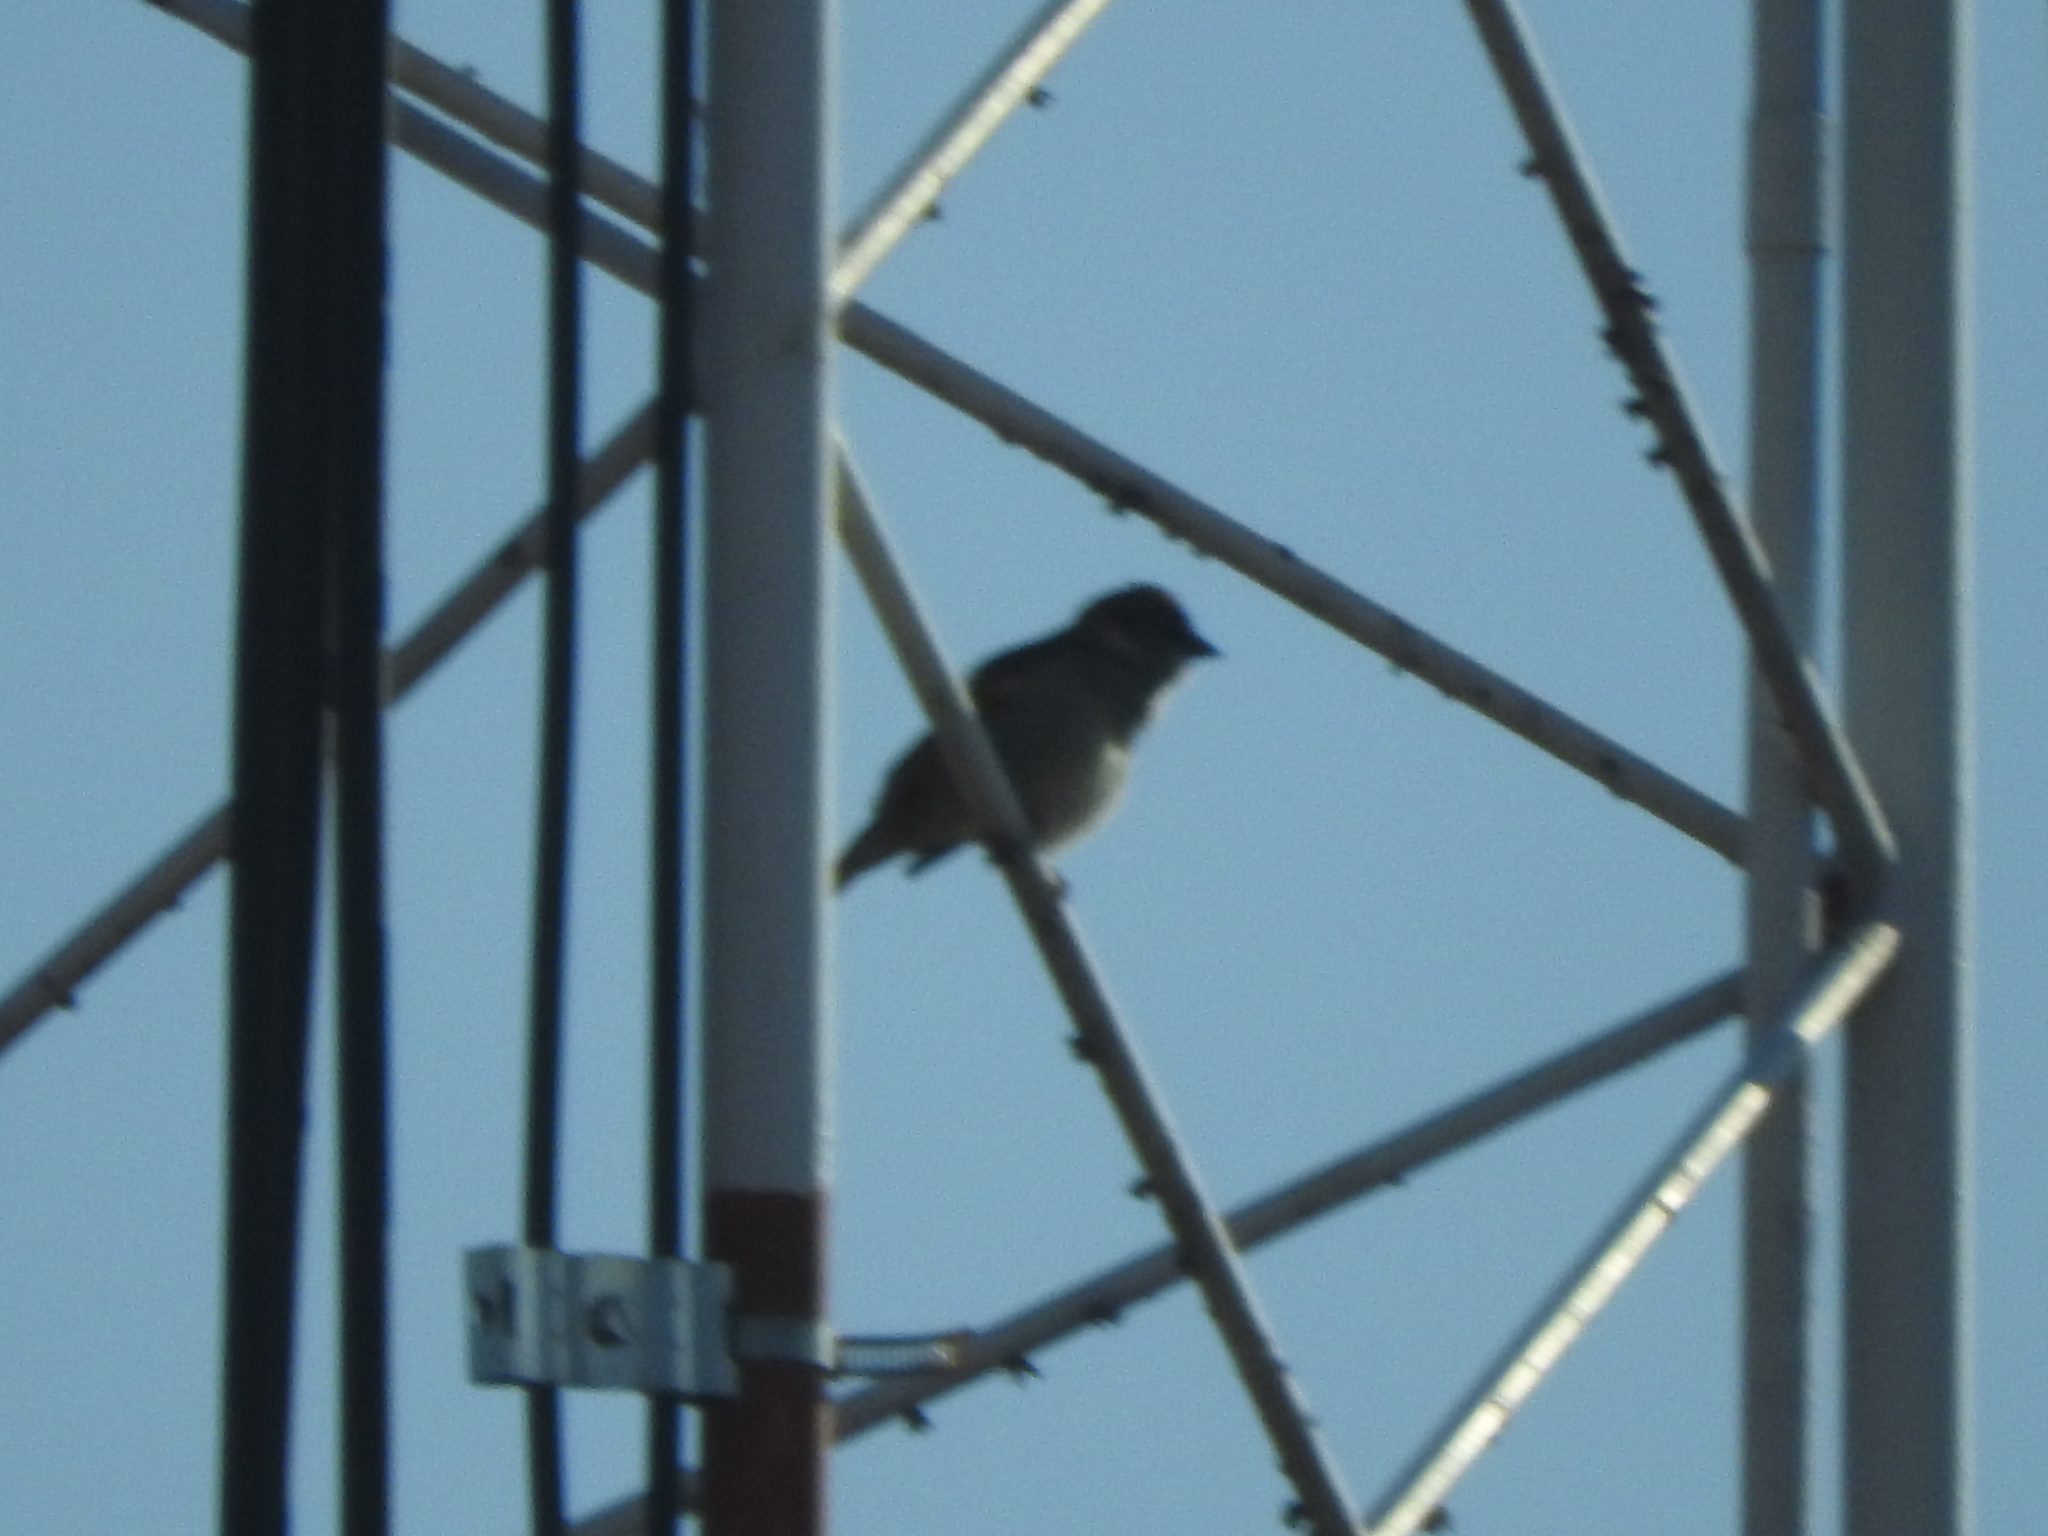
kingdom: Animalia
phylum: Chordata
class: Aves
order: Passeriformes
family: Passeridae
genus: Passer
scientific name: Passer domesticus
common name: House sparrow
